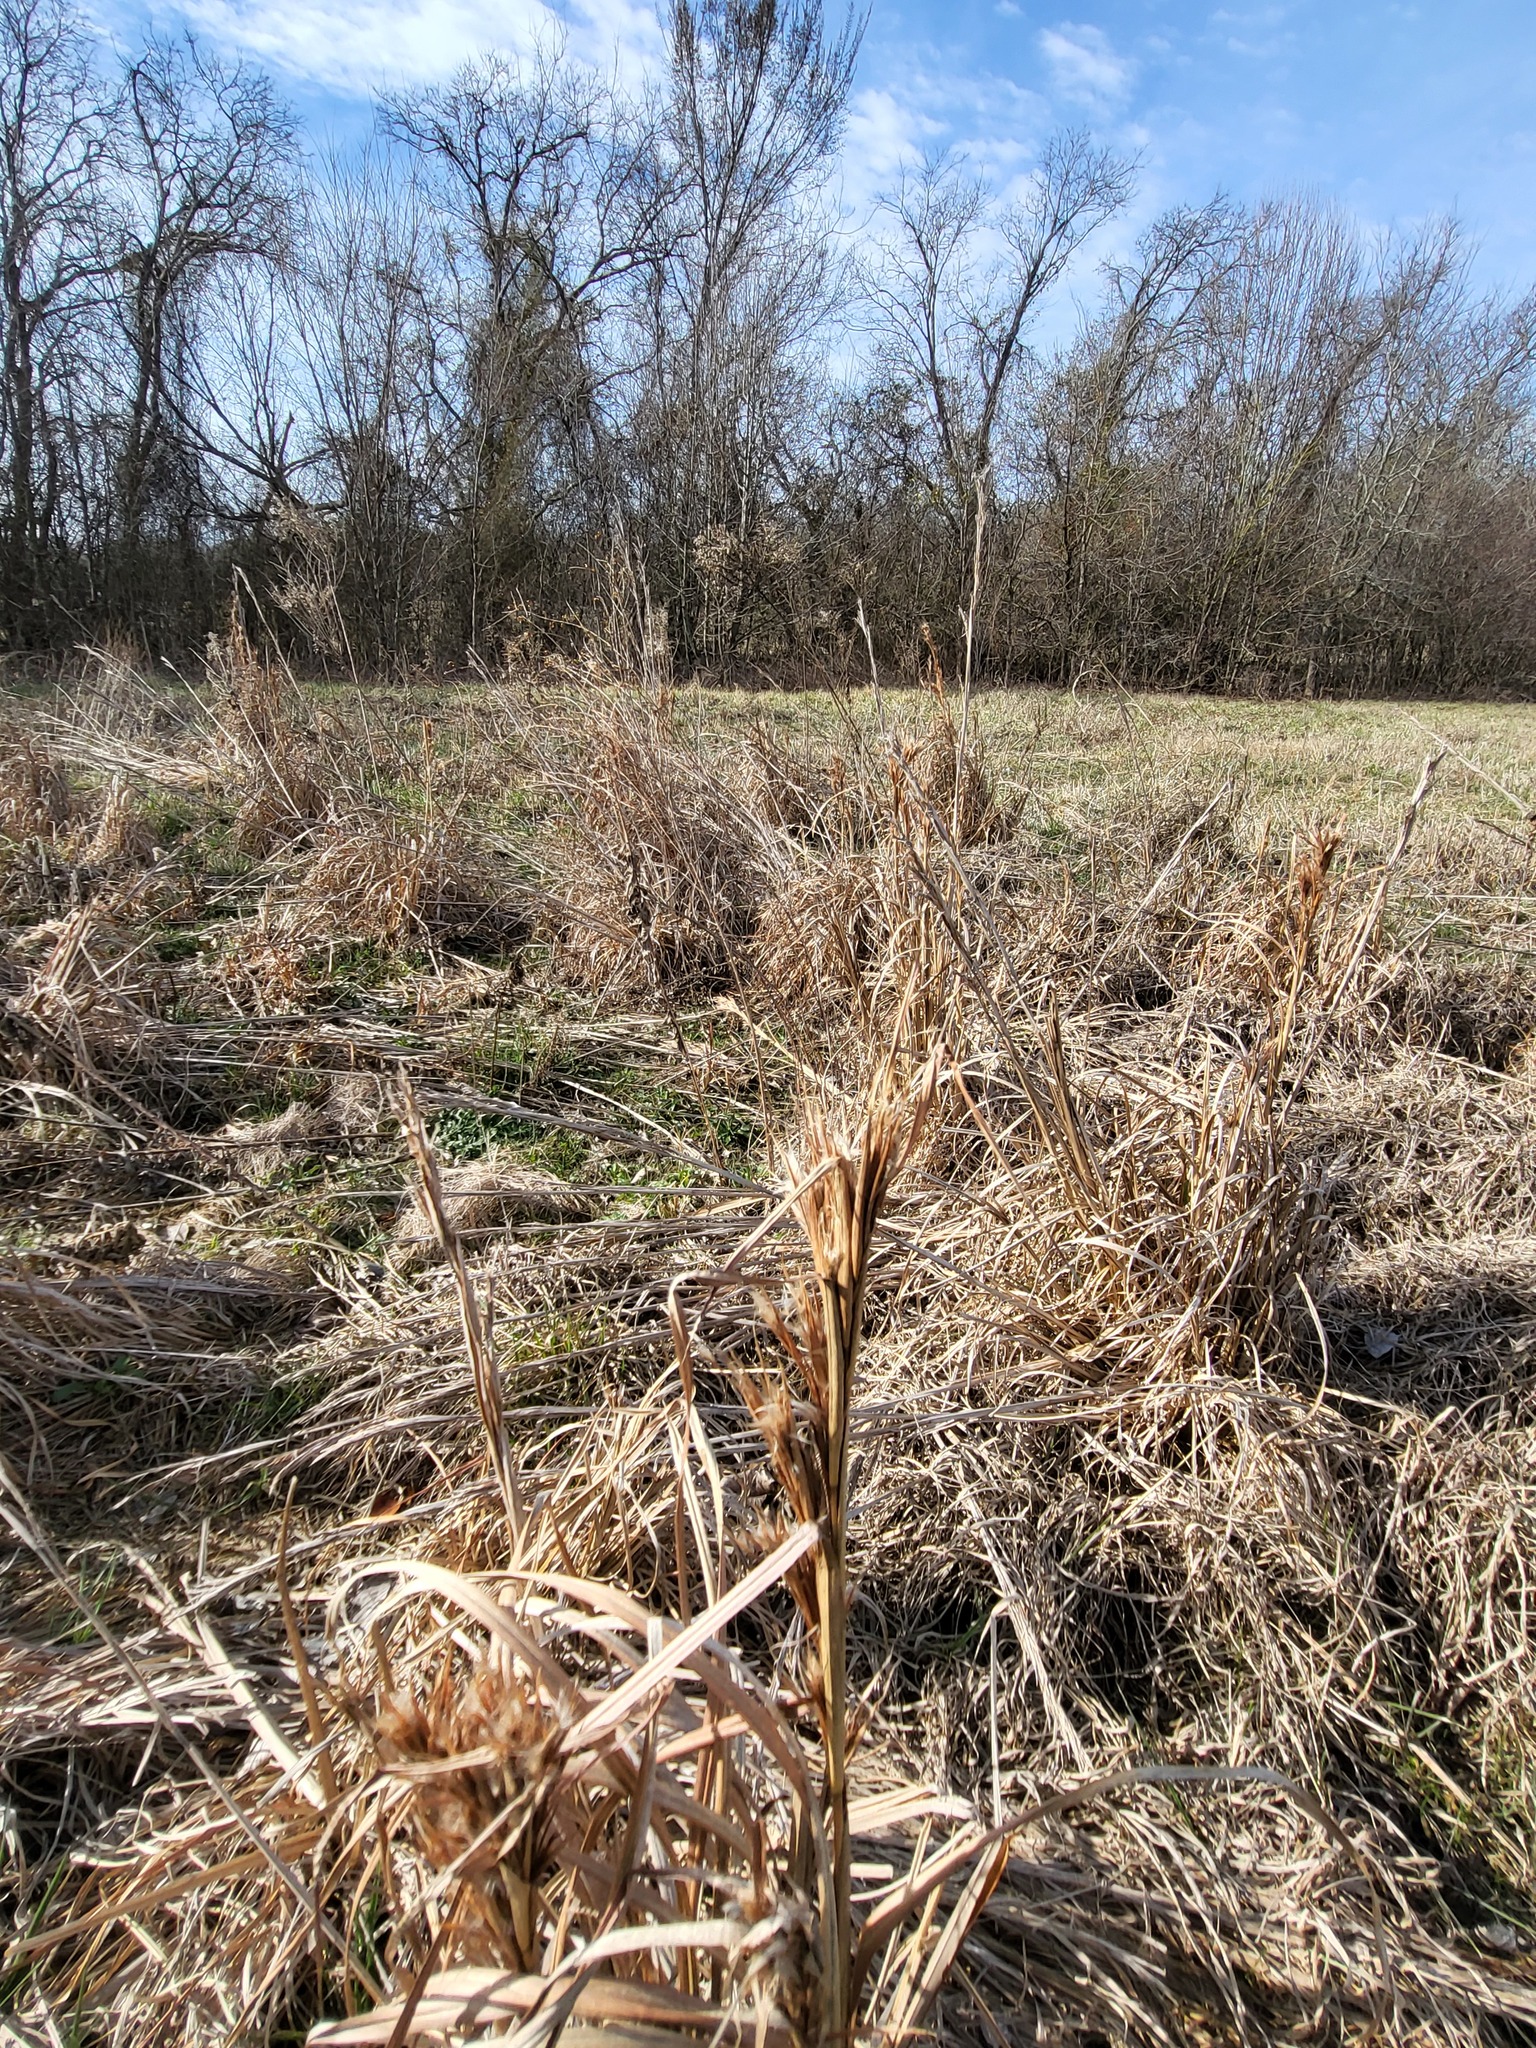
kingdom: Plantae
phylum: Tracheophyta
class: Liliopsida
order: Poales
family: Poaceae
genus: Andropogon
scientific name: Andropogon tenuispatheus
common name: Bushy bluestem
